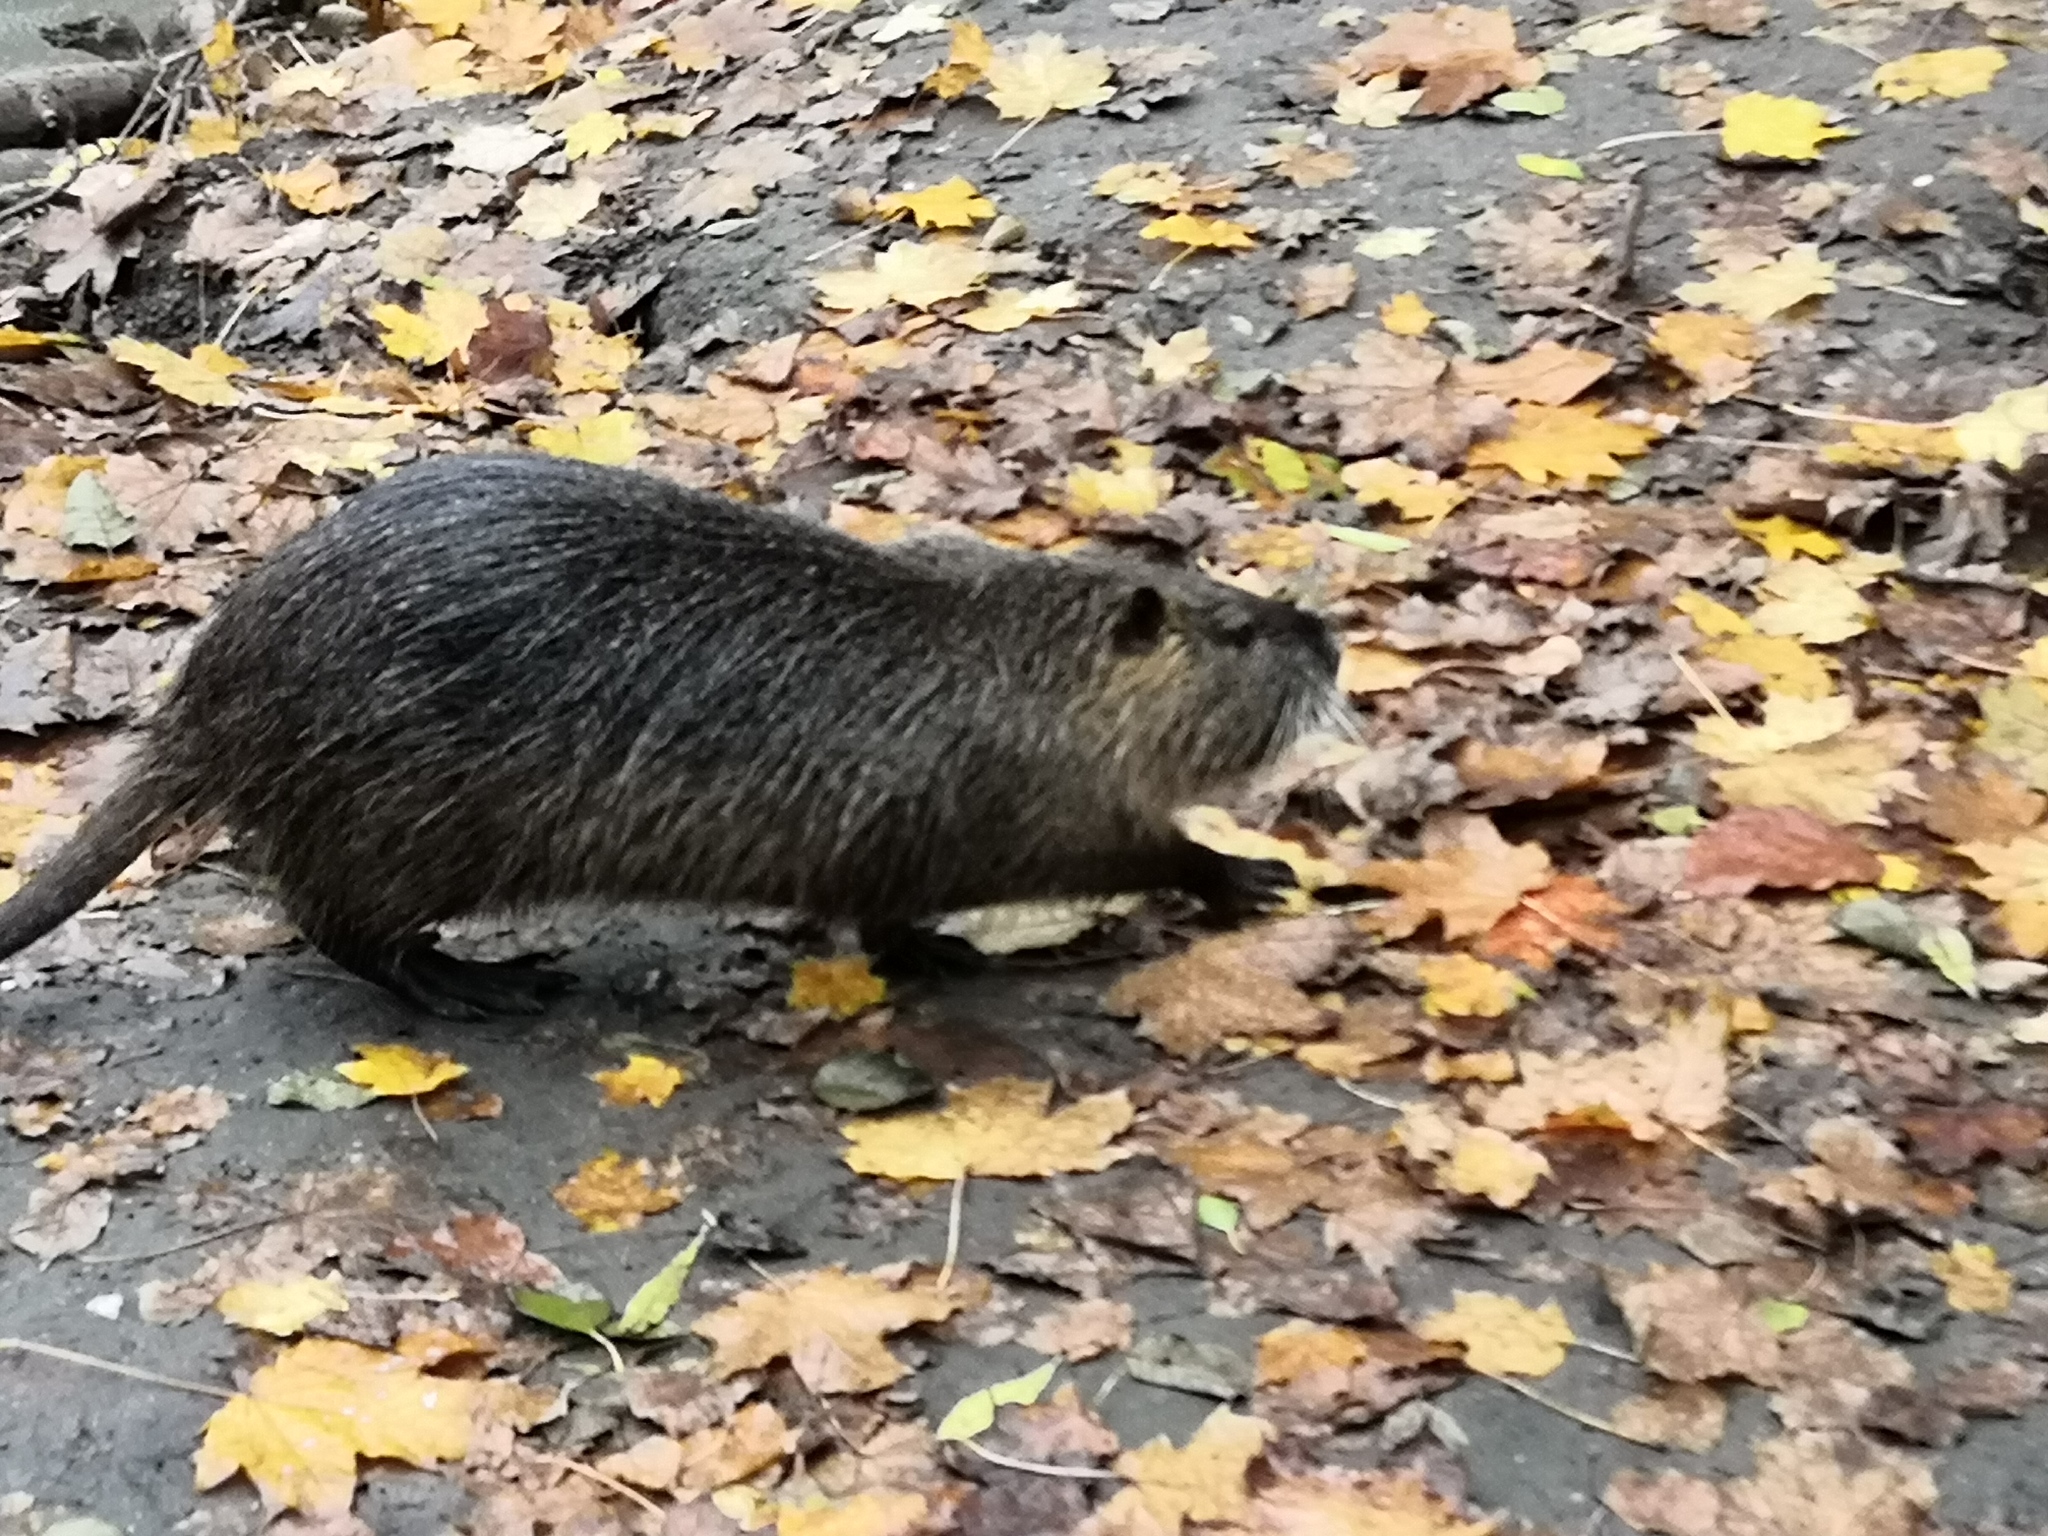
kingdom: Animalia
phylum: Chordata
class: Mammalia
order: Rodentia
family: Myocastoridae
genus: Myocastor
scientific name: Myocastor coypus
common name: Coypu
